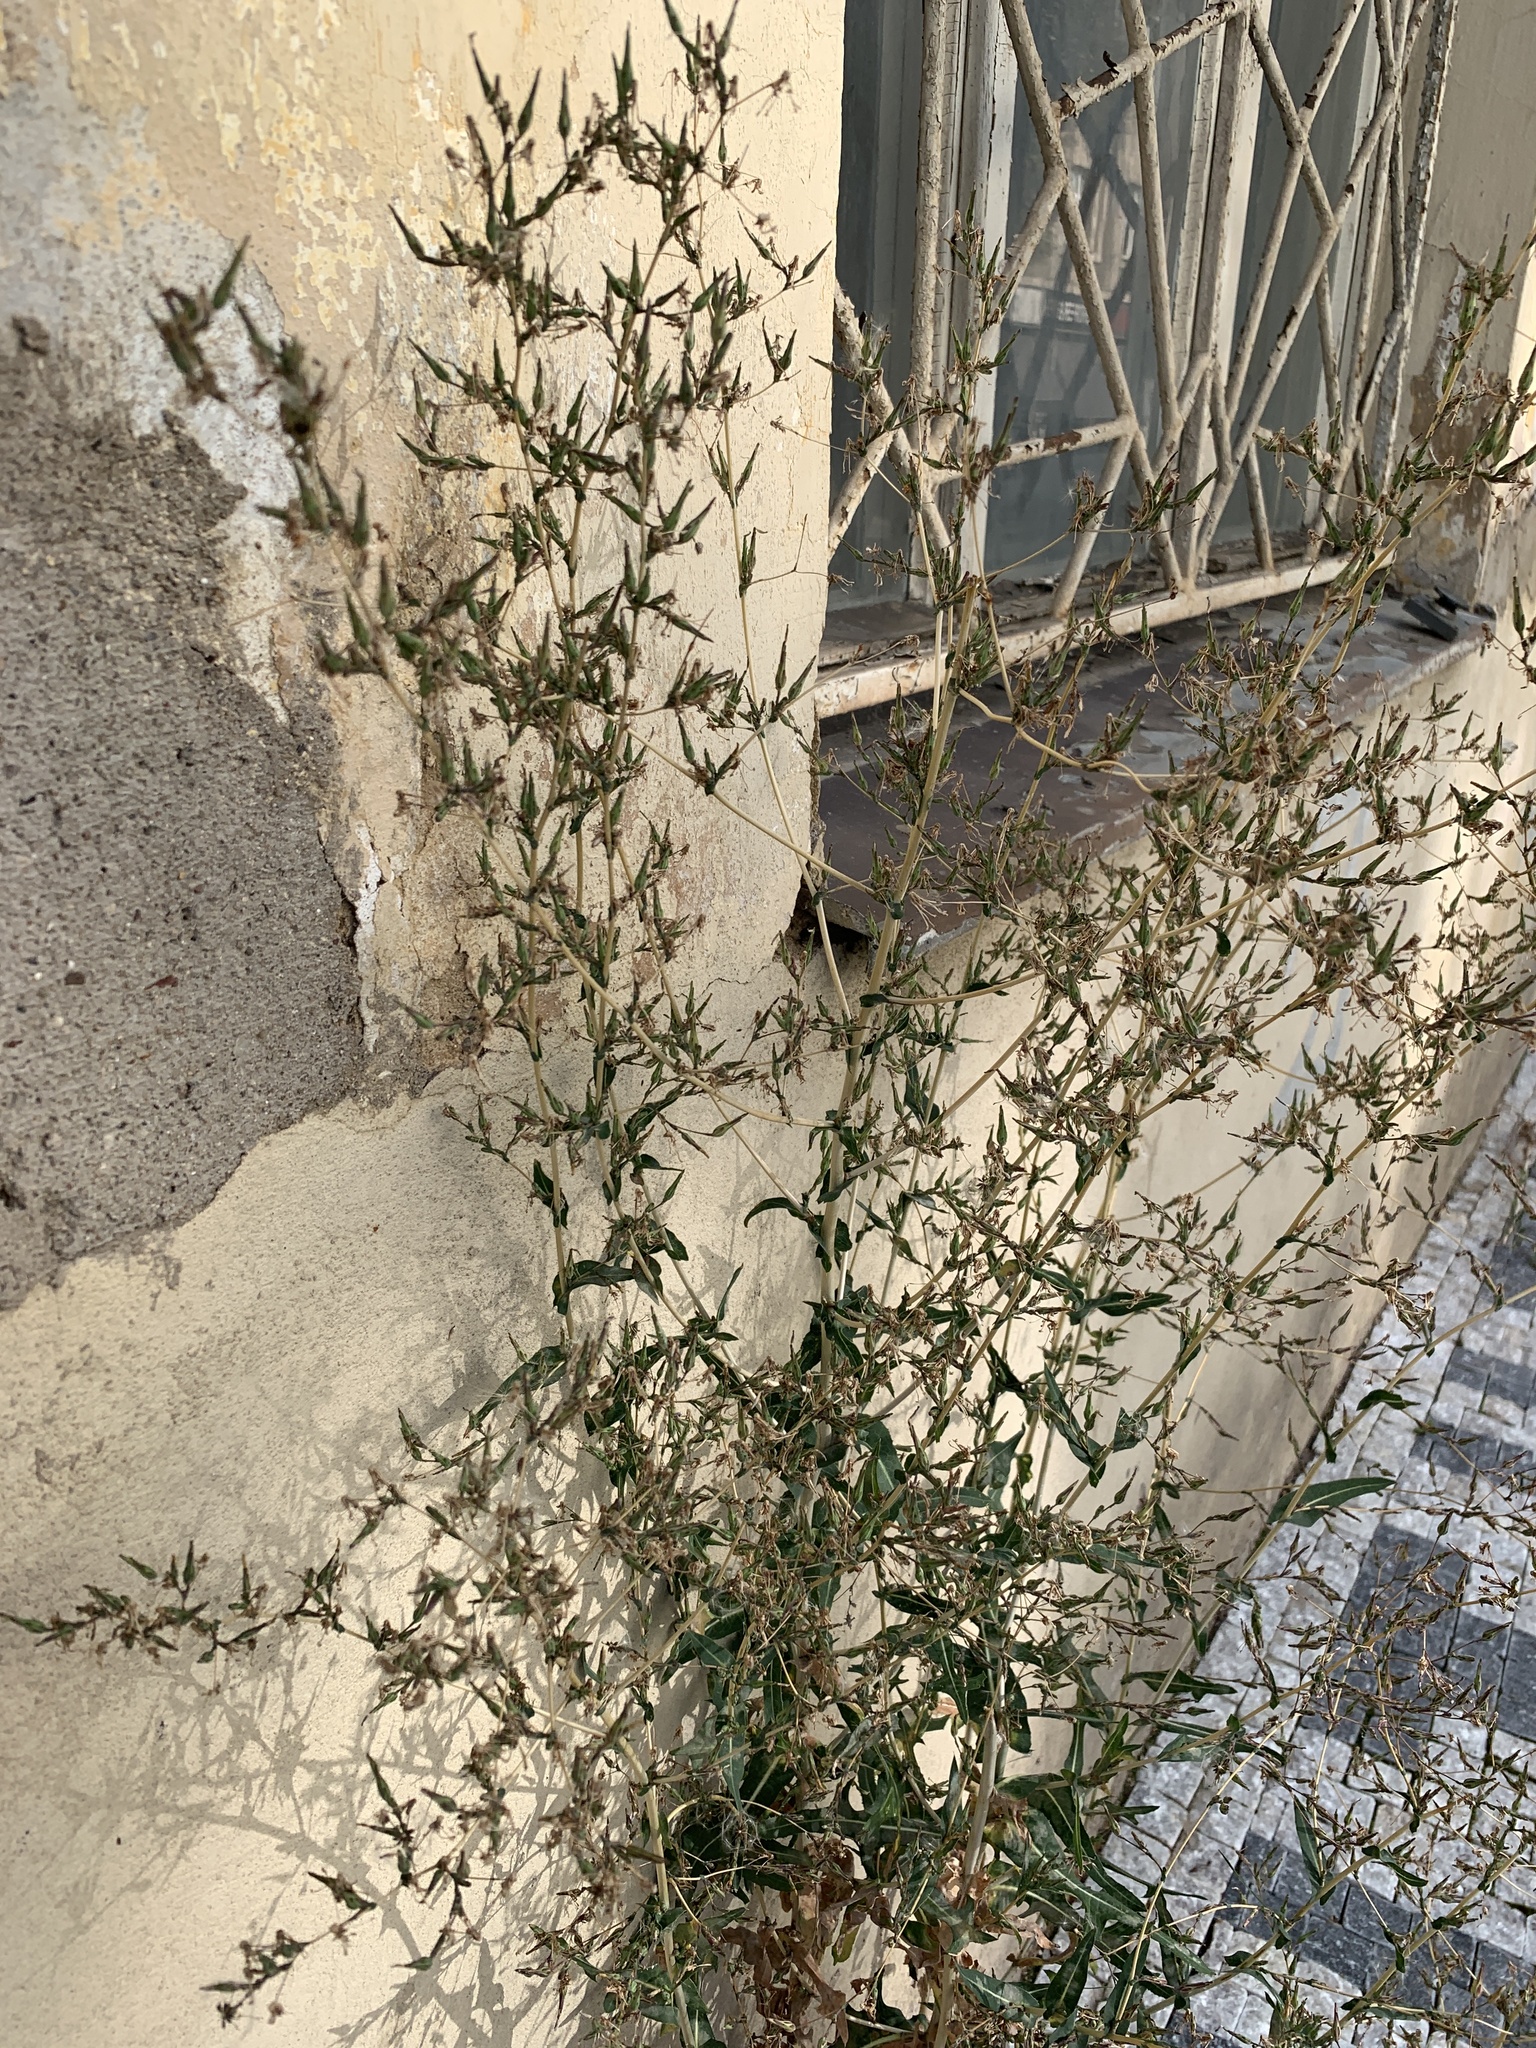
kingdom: Plantae
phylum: Tracheophyta
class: Magnoliopsida
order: Asterales
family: Asteraceae
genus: Lactuca
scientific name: Lactuca serriola
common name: Prickly lettuce
